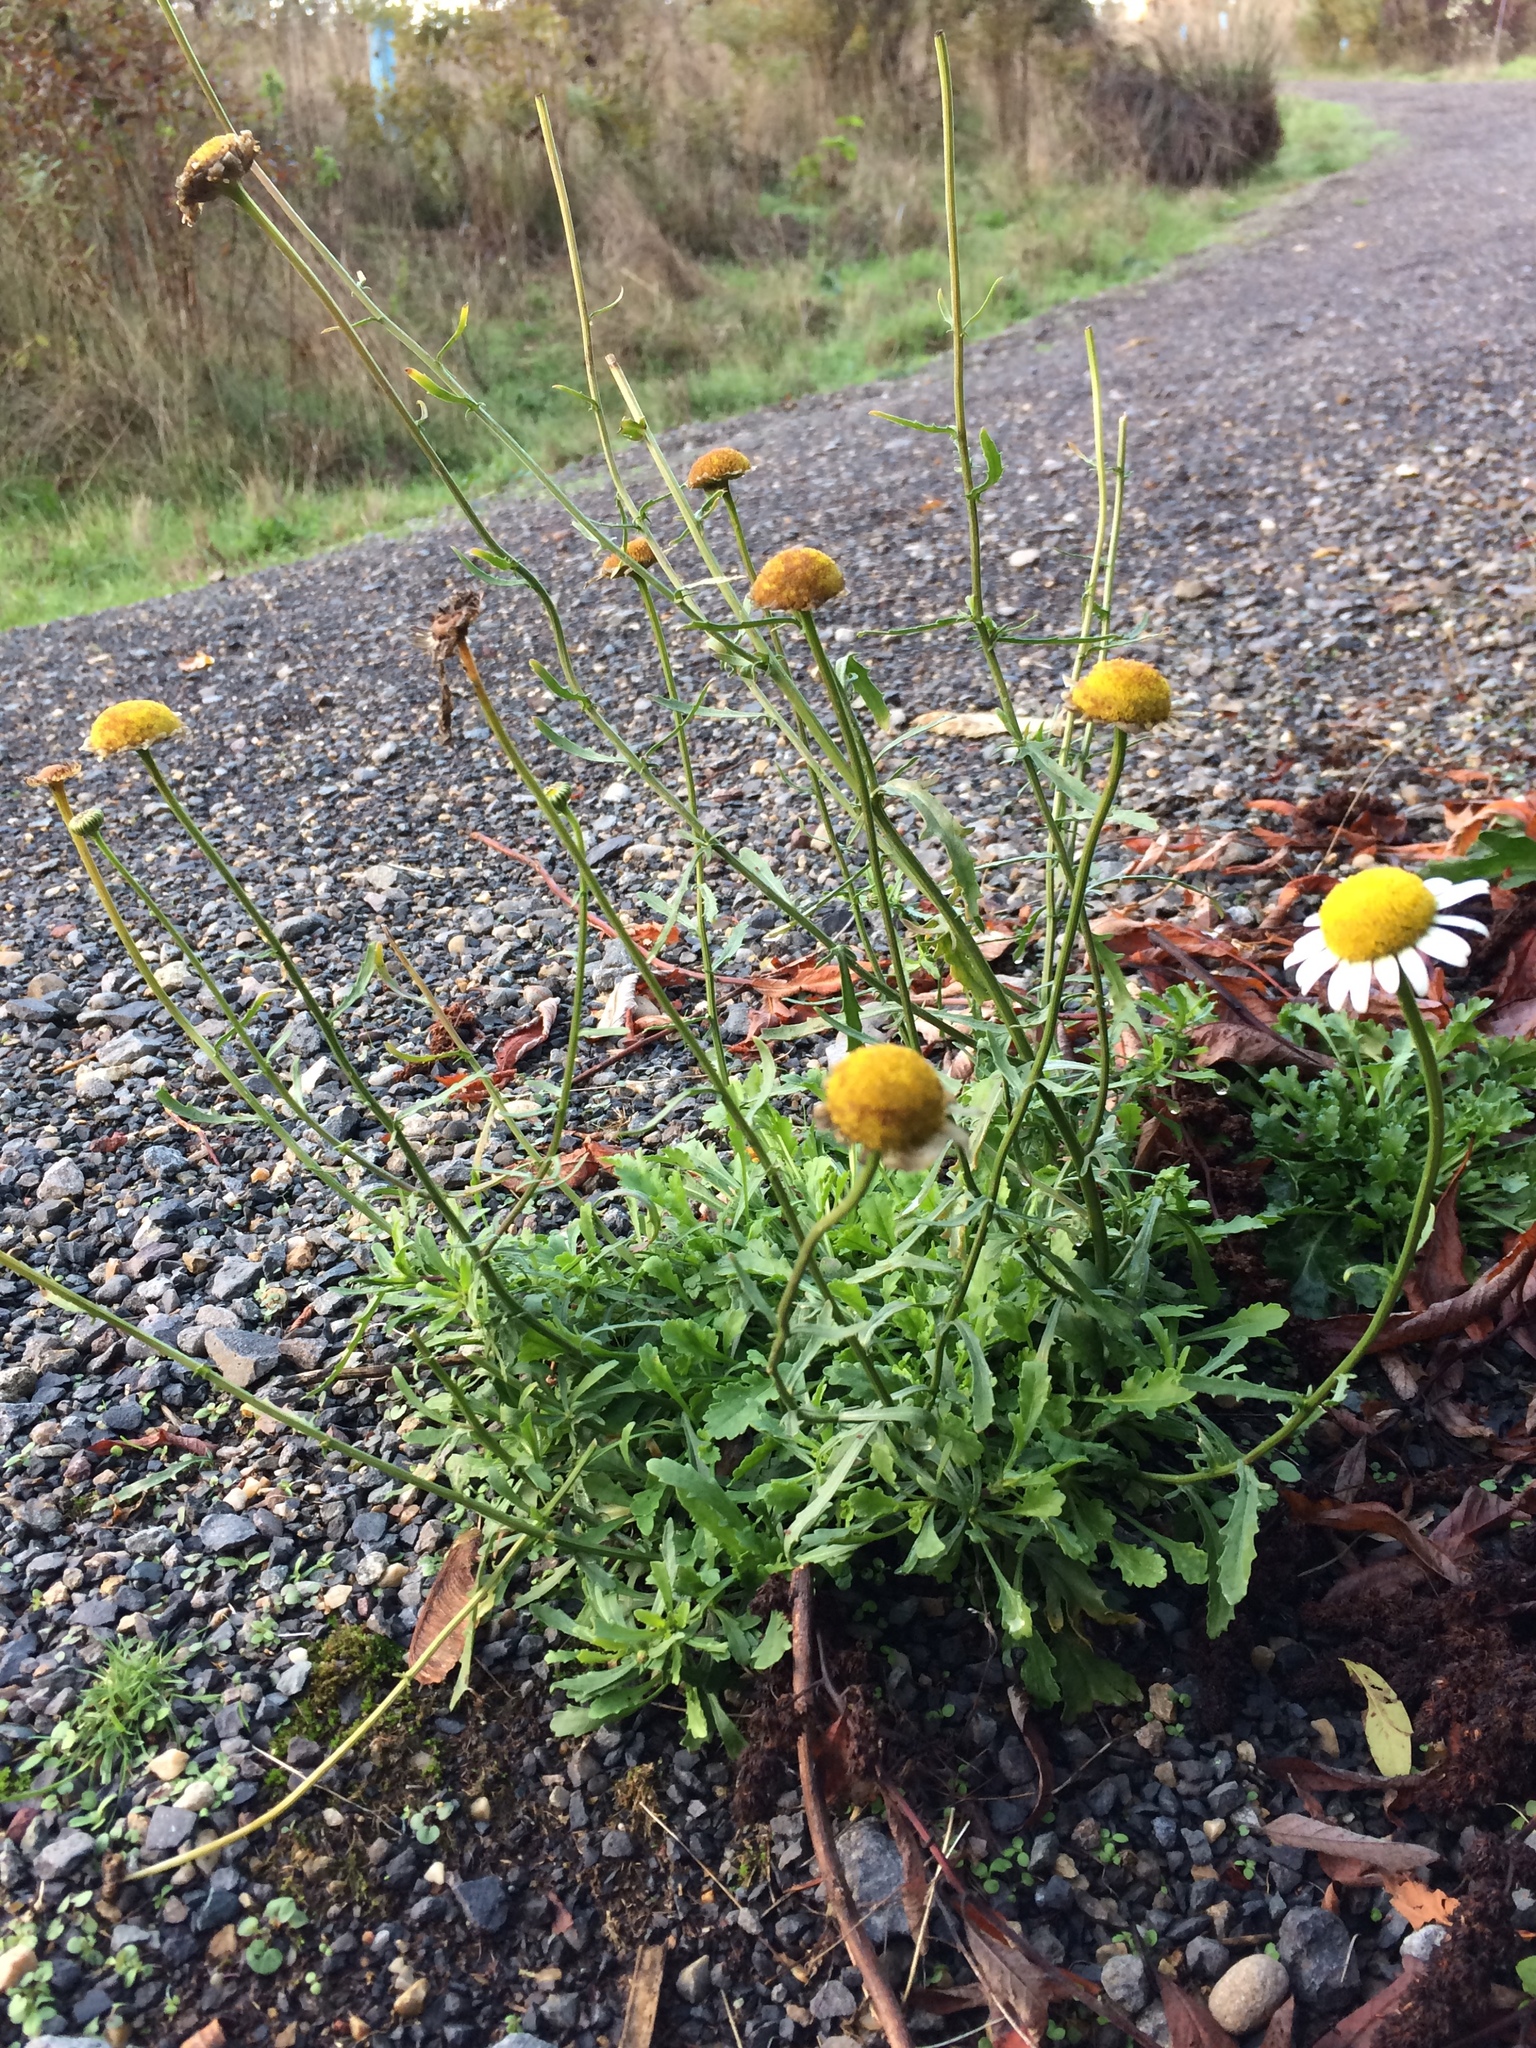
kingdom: Plantae
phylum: Tracheophyta
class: Magnoliopsida
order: Asterales
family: Asteraceae
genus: Leucanthemum
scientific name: Leucanthemum vulgare
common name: Oxeye daisy
